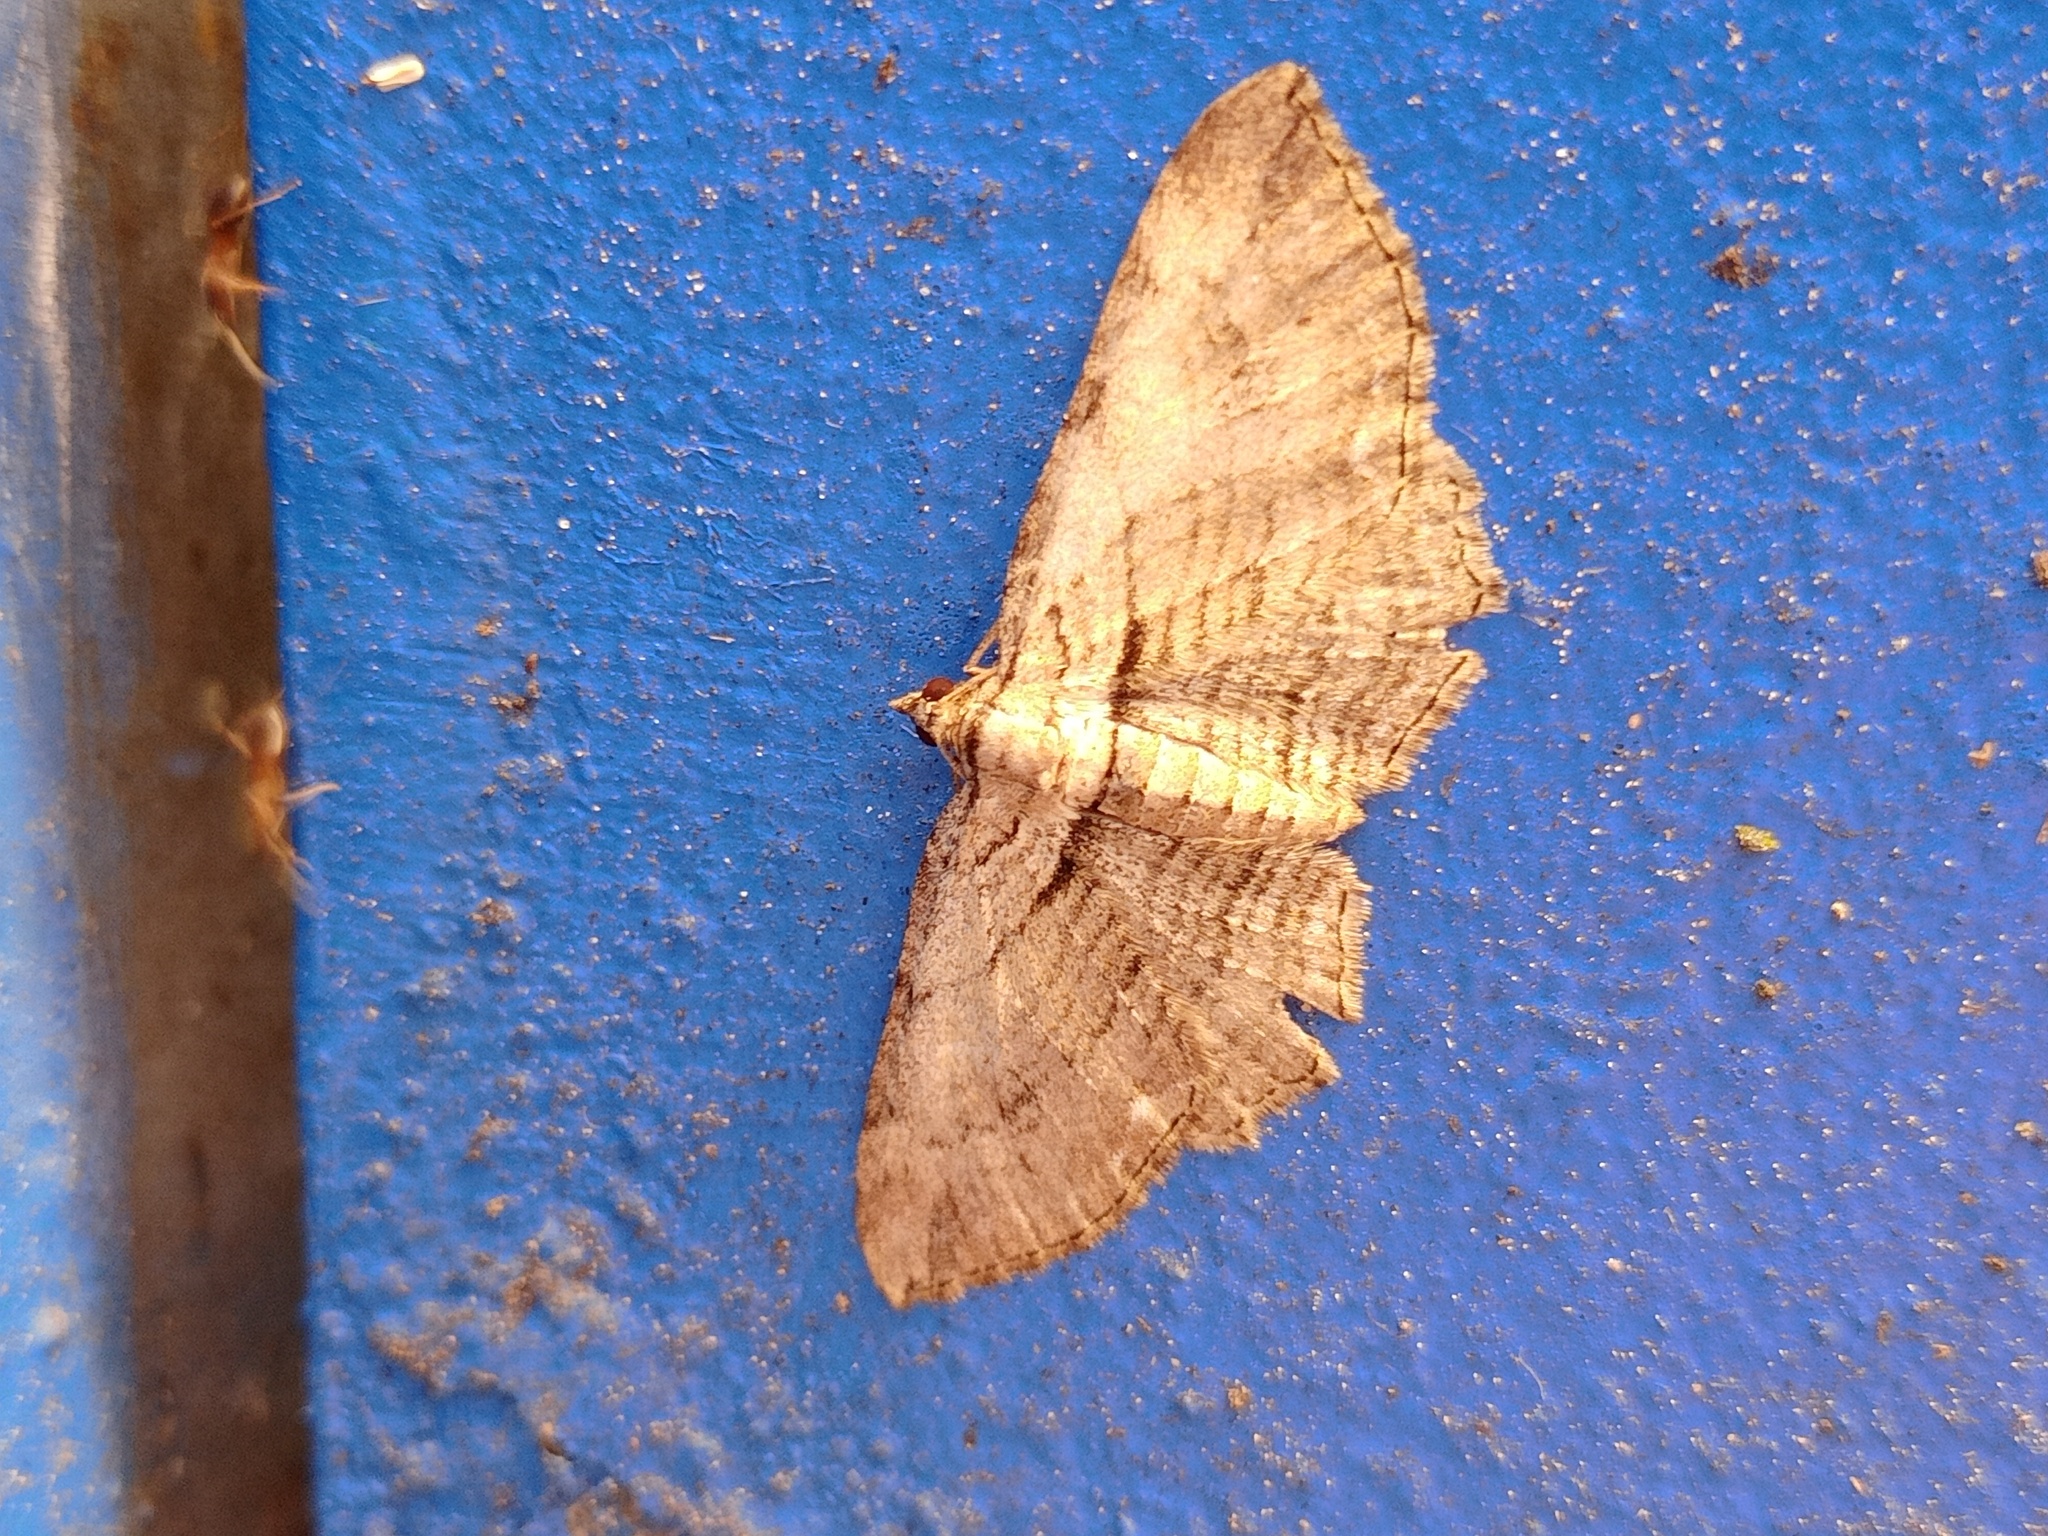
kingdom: Animalia
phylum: Arthropoda
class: Insecta
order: Lepidoptera
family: Geometridae
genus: Horisme
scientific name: Horisme tersata
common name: Fern
